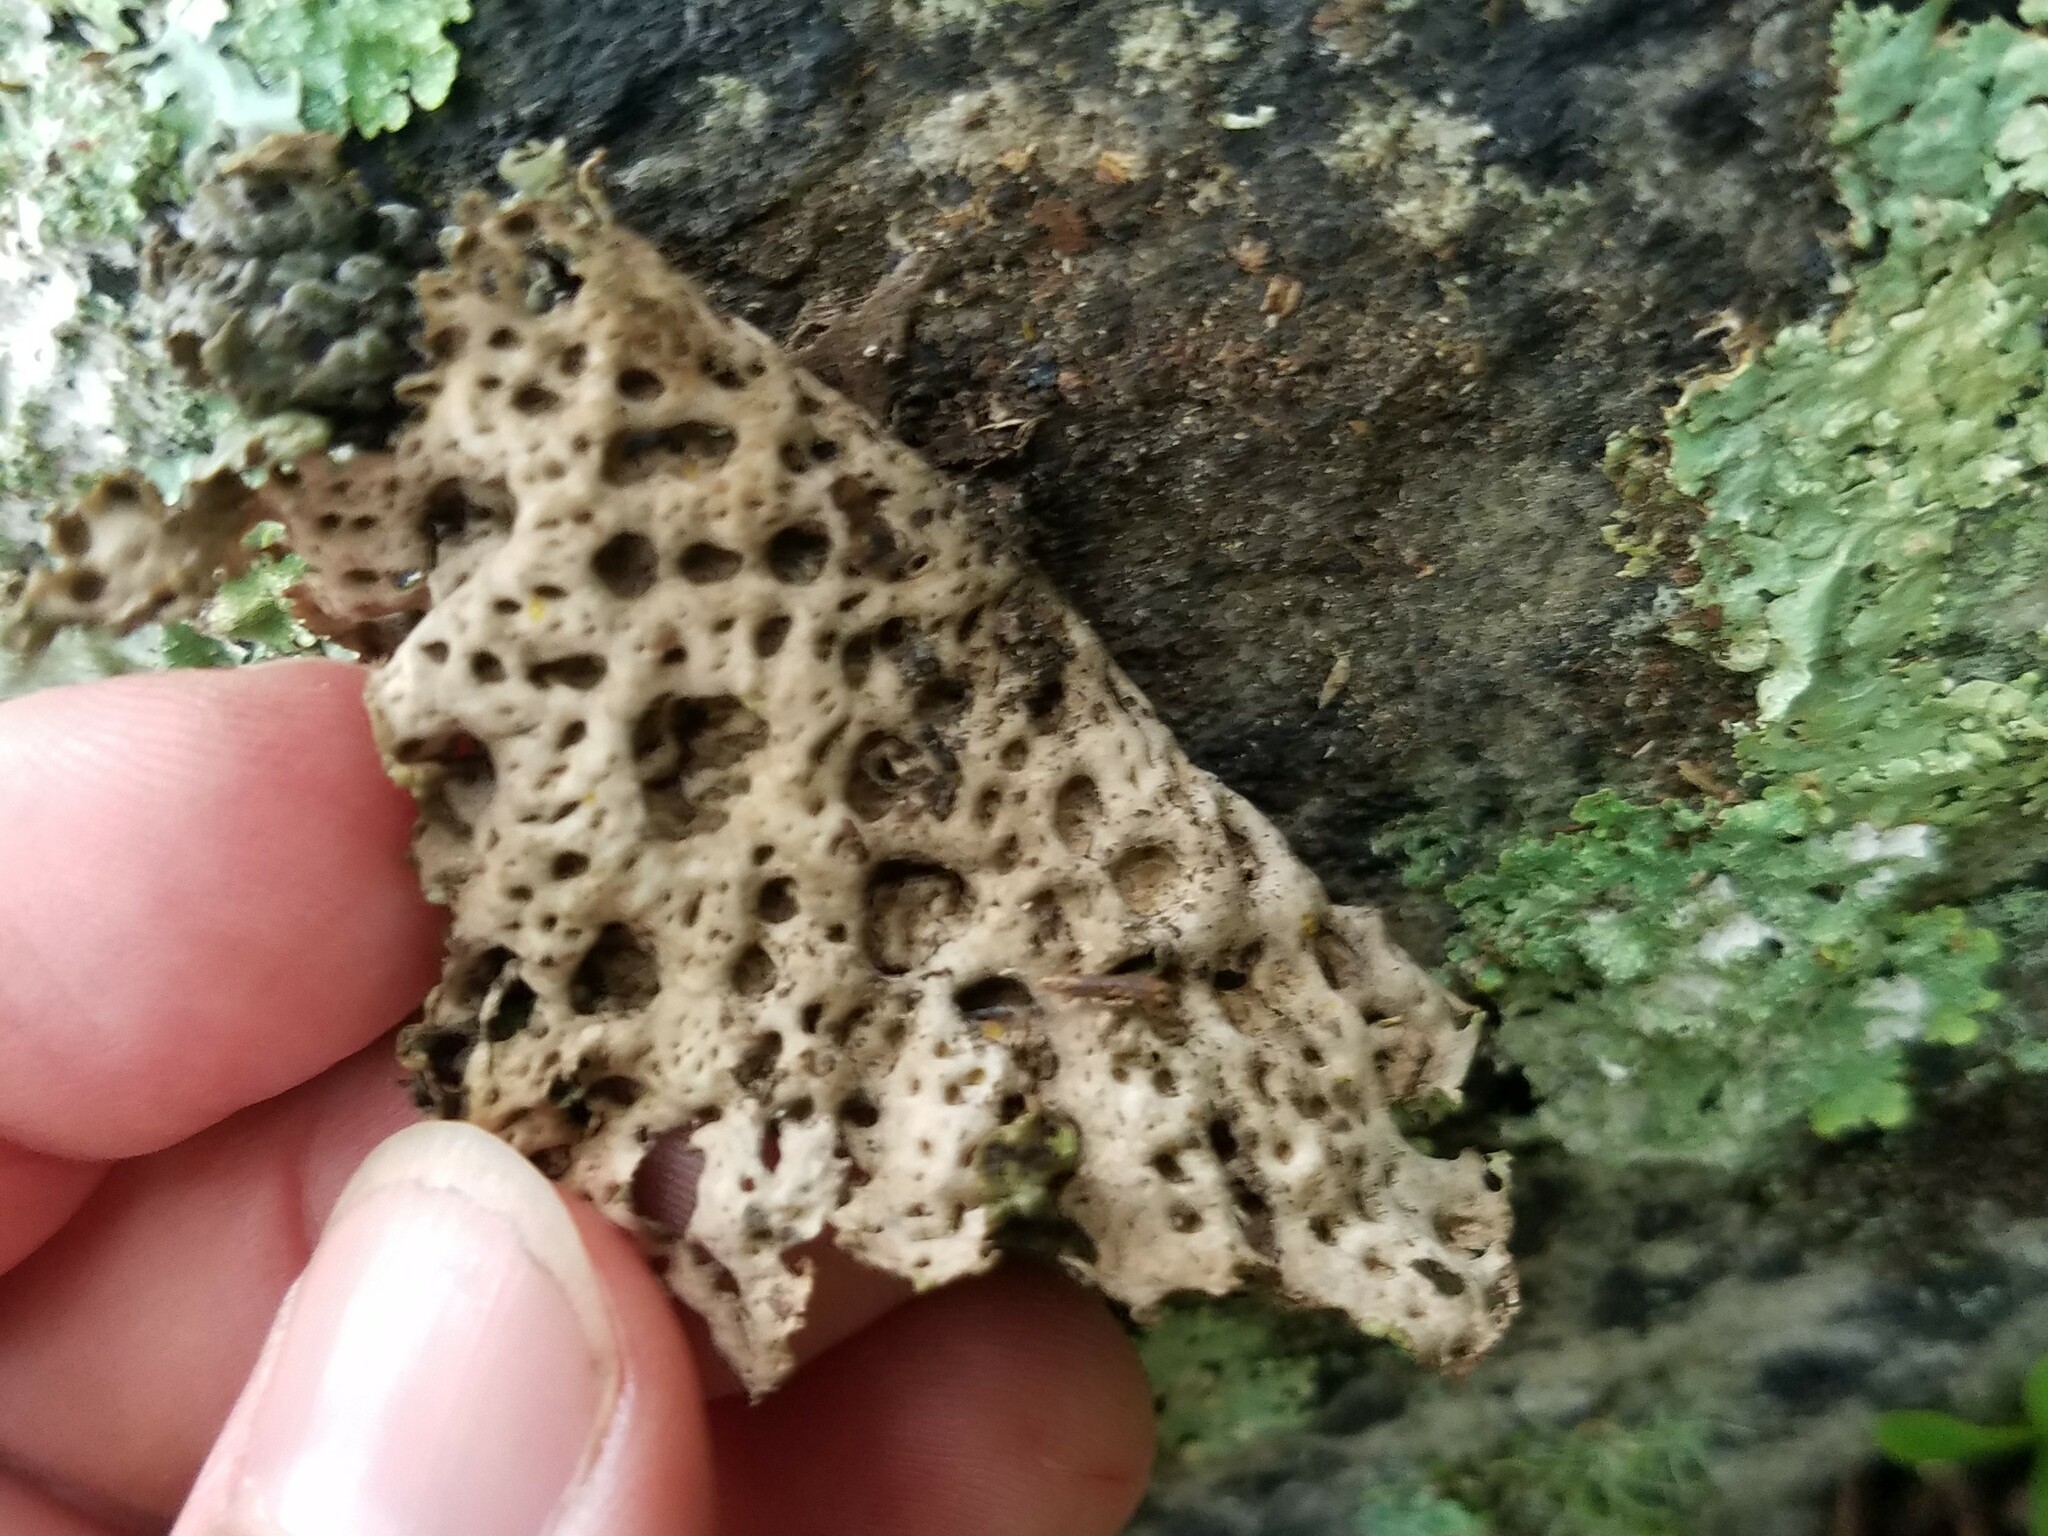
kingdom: Fungi
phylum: Ascomycota
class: Lecanoromycetes
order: Umbilicariales
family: Umbilicariaceae
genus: Lasallia
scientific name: Lasallia papulosa
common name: Common toadskin lichen
